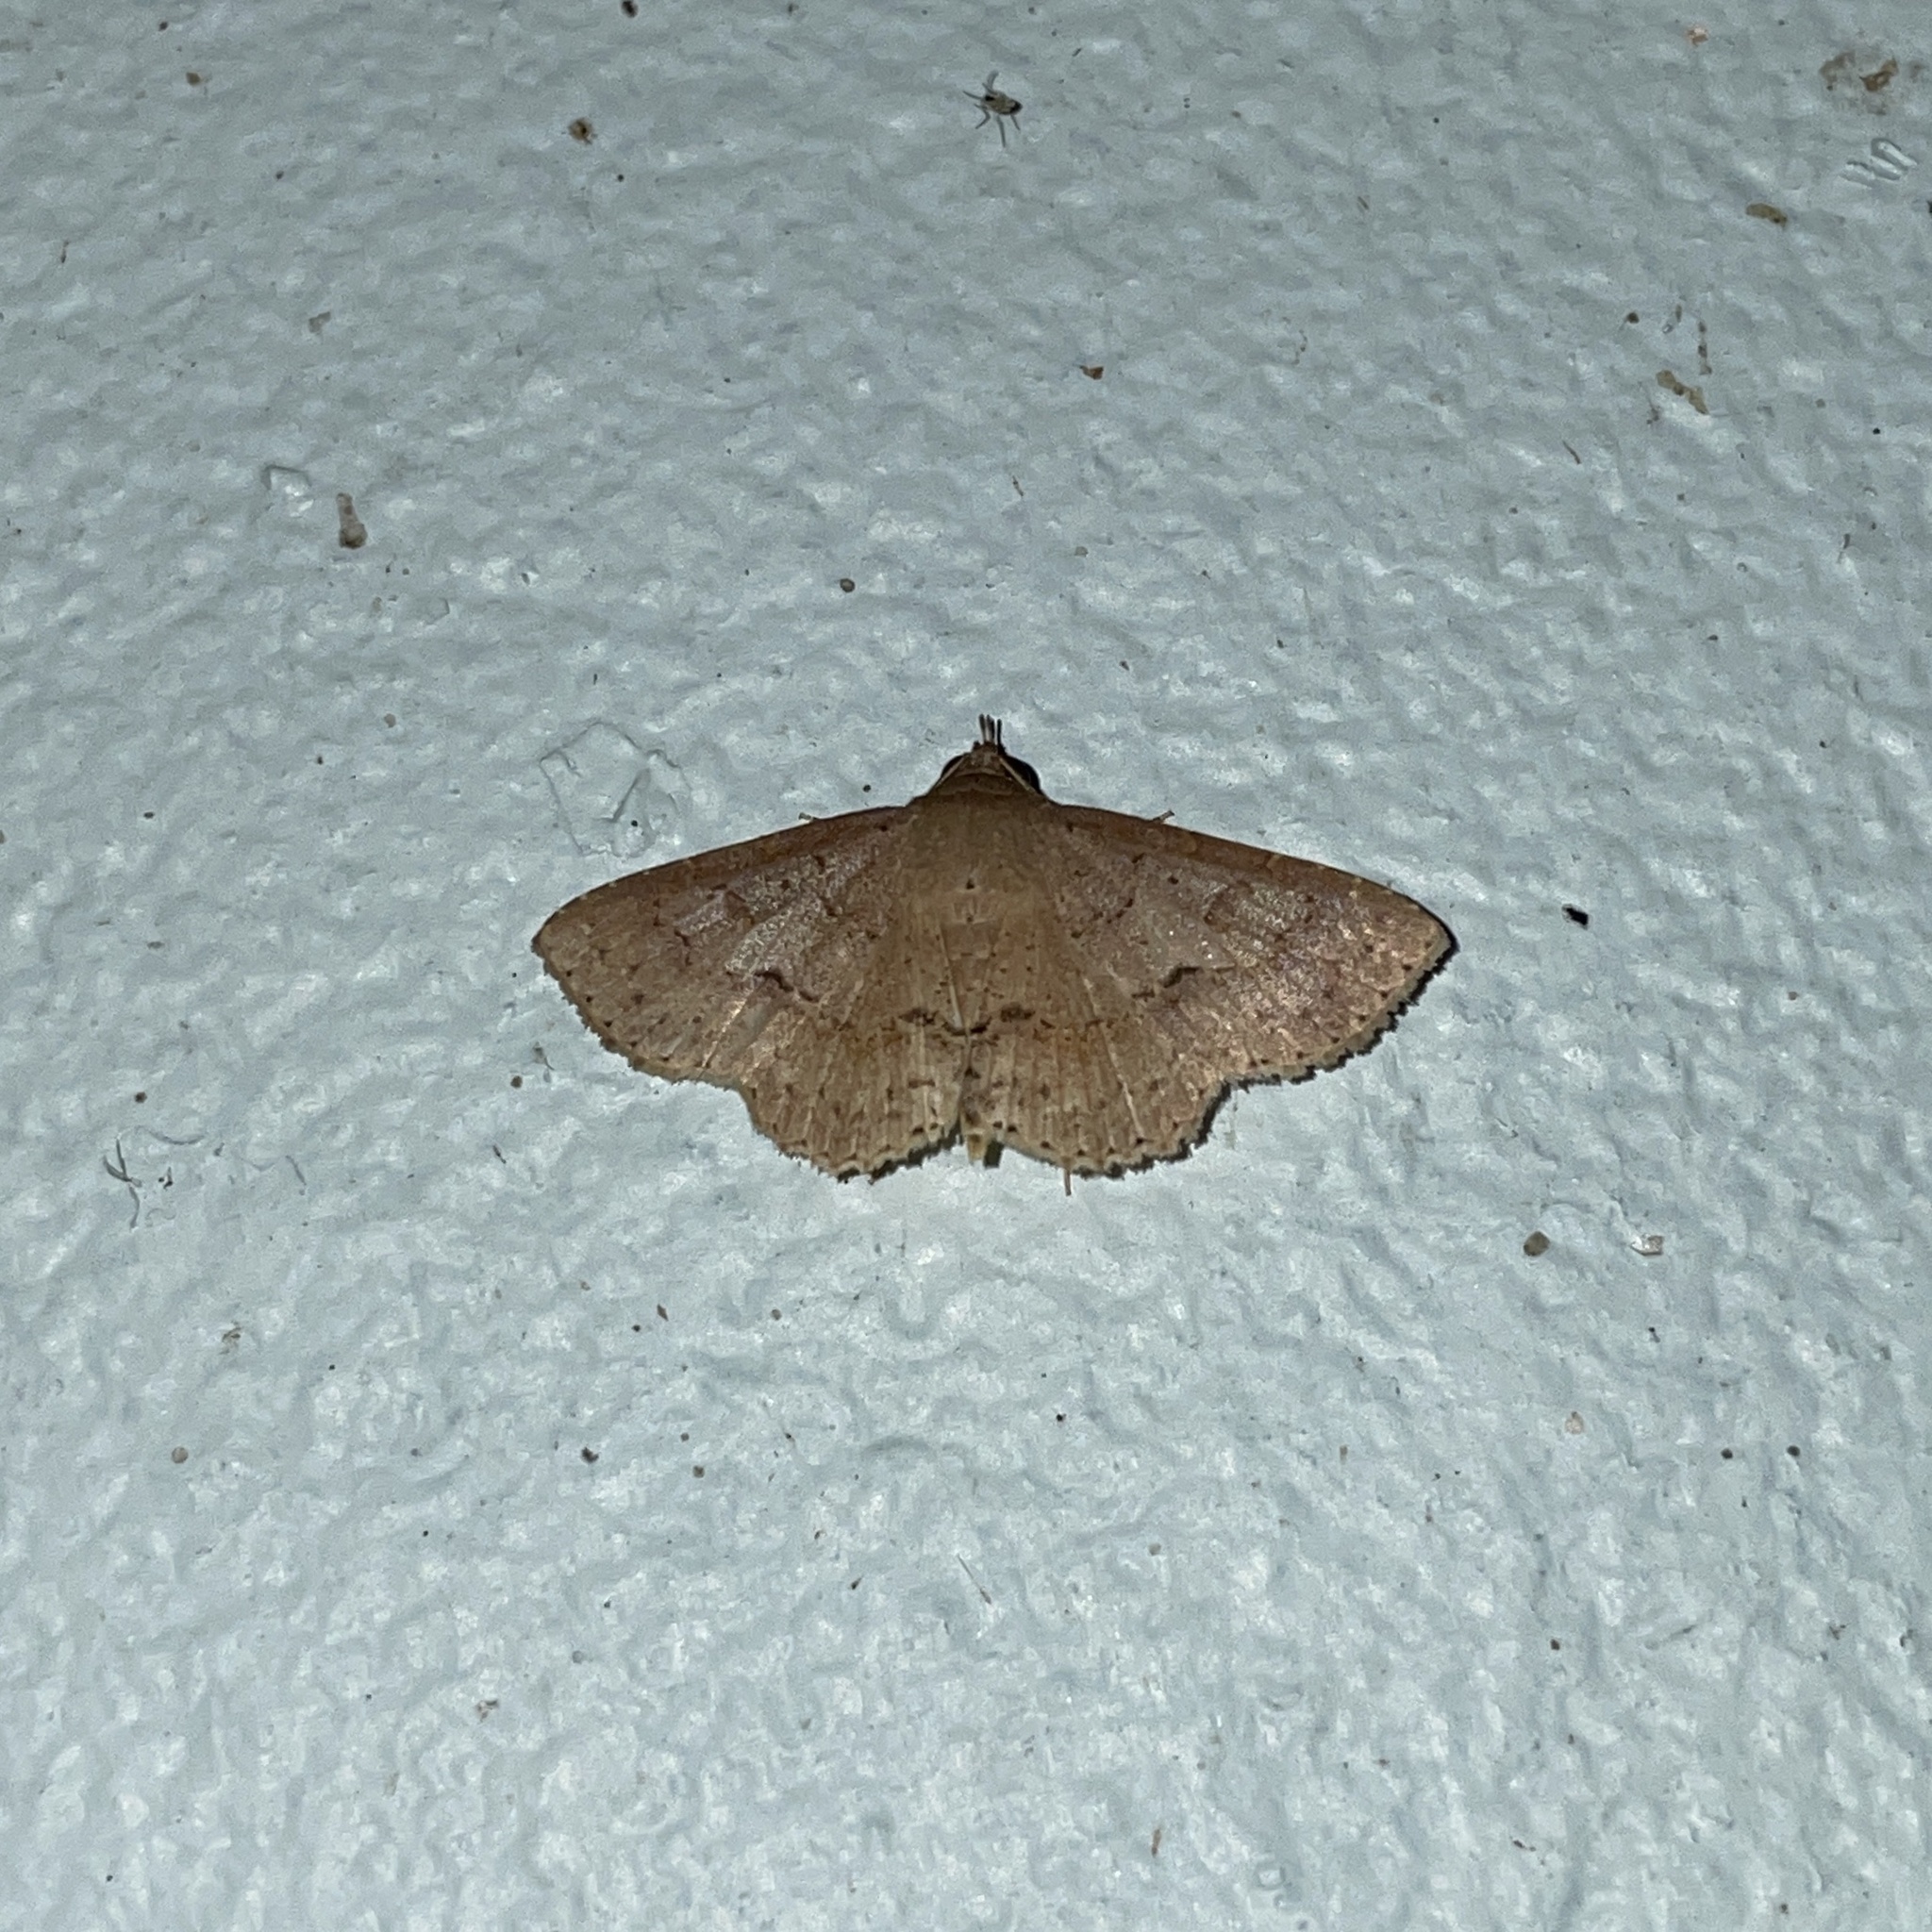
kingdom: Animalia
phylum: Arthropoda
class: Insecta
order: Lepidoptera
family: Erebidae
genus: Antiblemma
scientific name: Antiblemma melanoides
